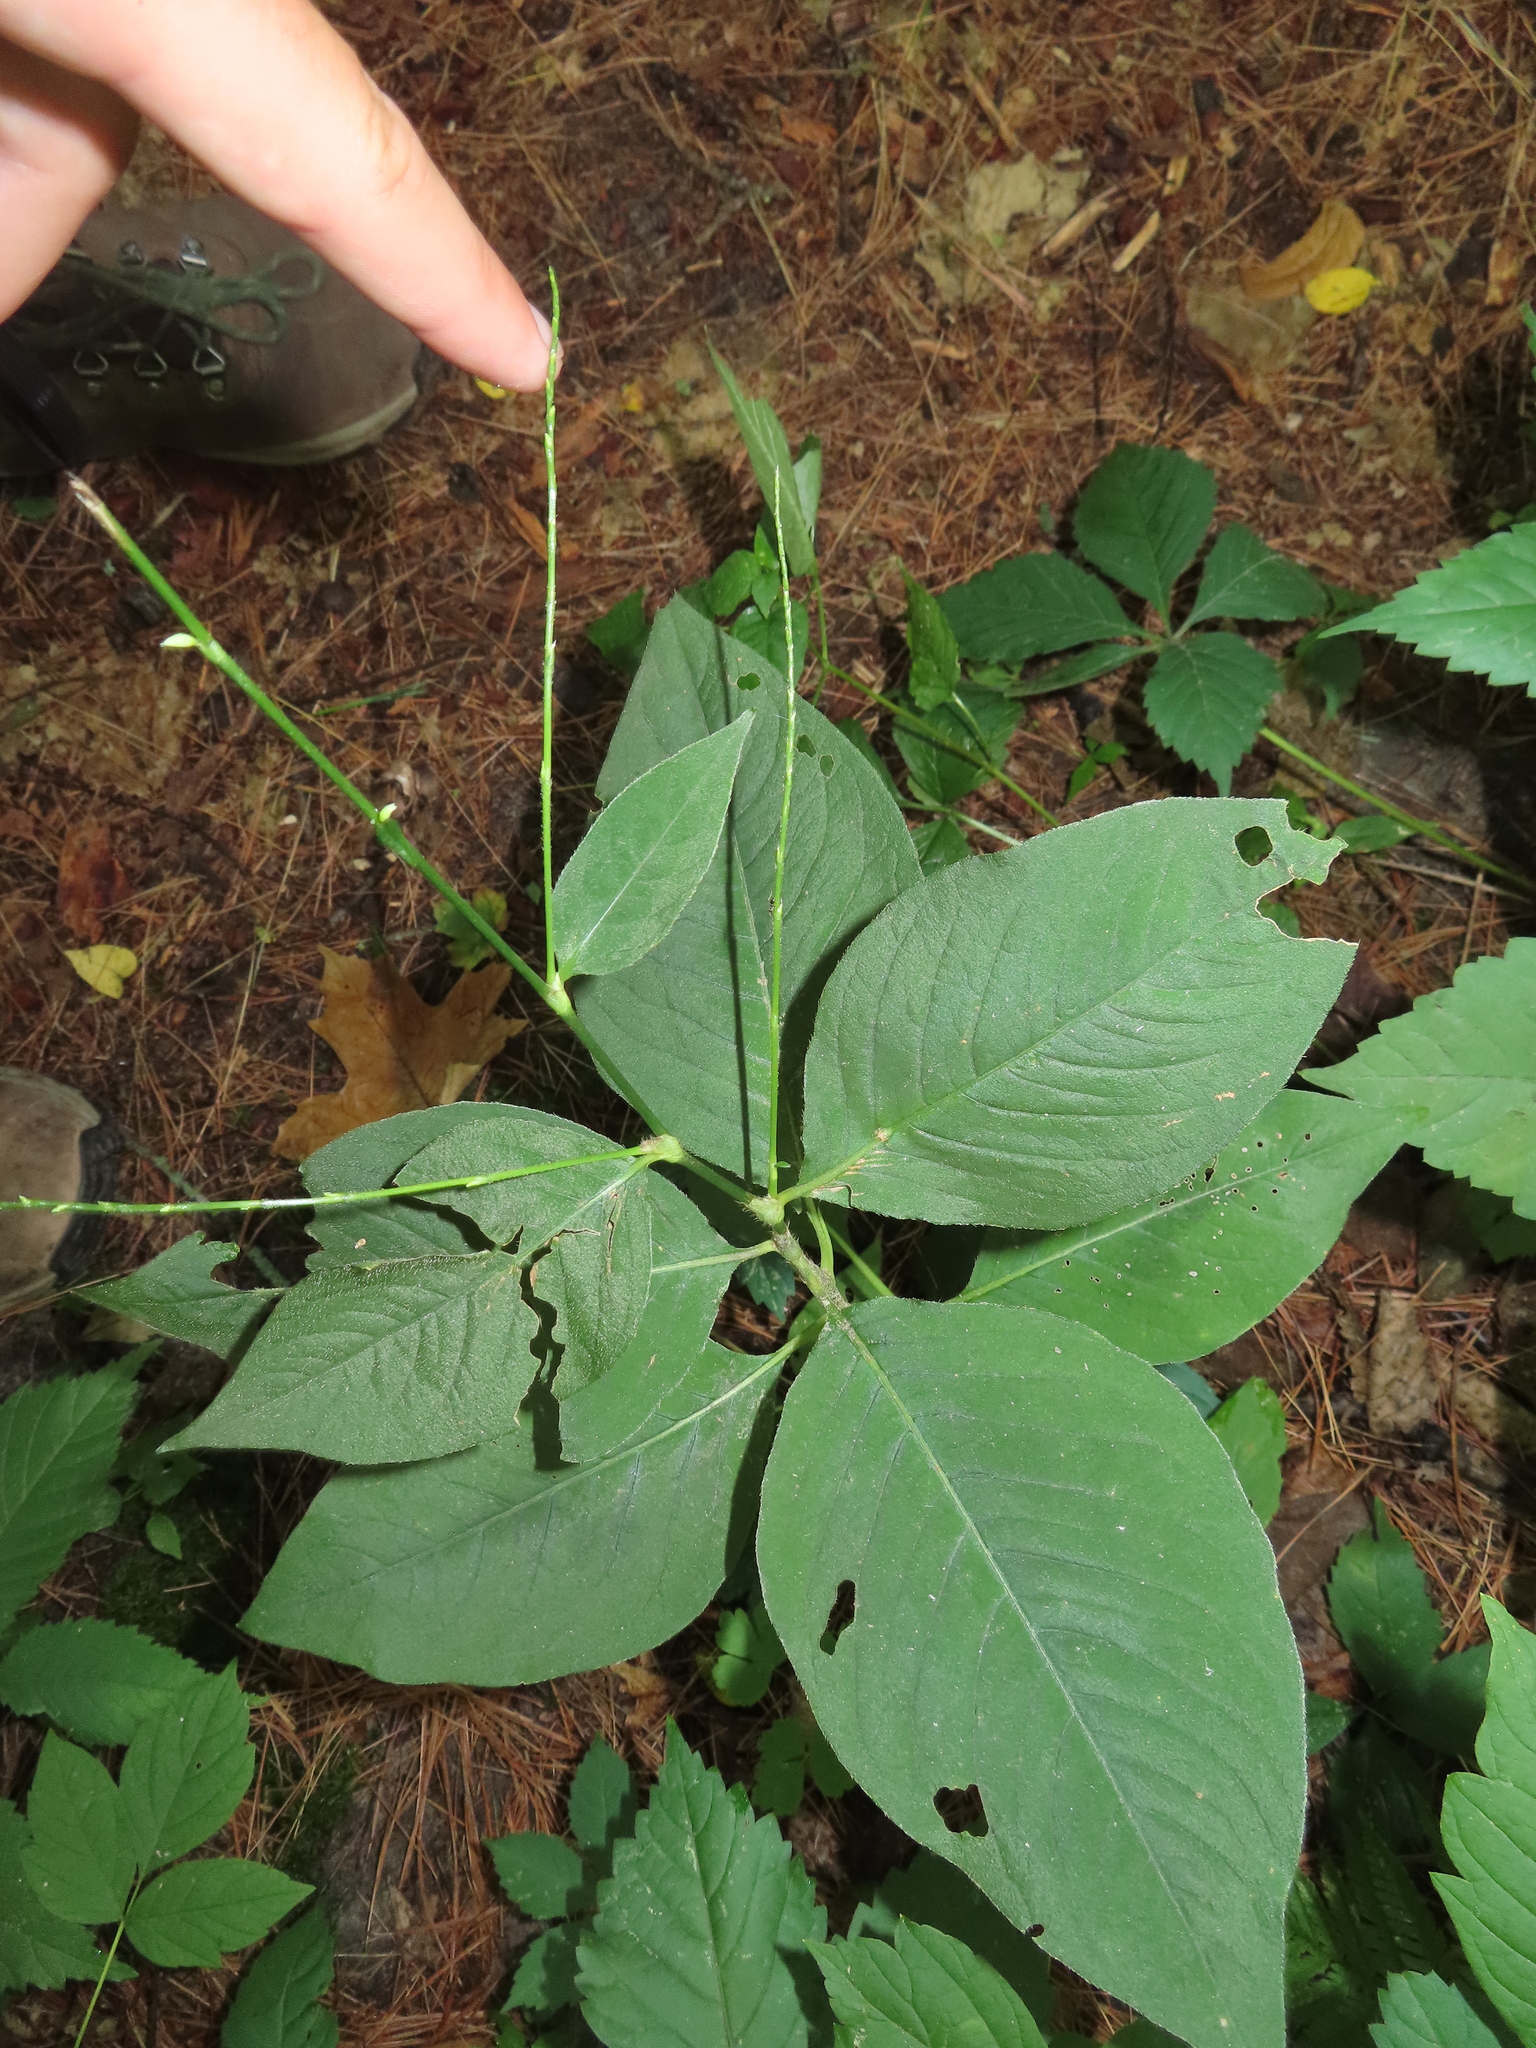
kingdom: Plantae
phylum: Tracheophyta
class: Magnoliopsida
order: Caryophyllales
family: Polygonaceae
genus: Persicaria
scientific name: Persicaria virginiana
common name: Jumpseed
